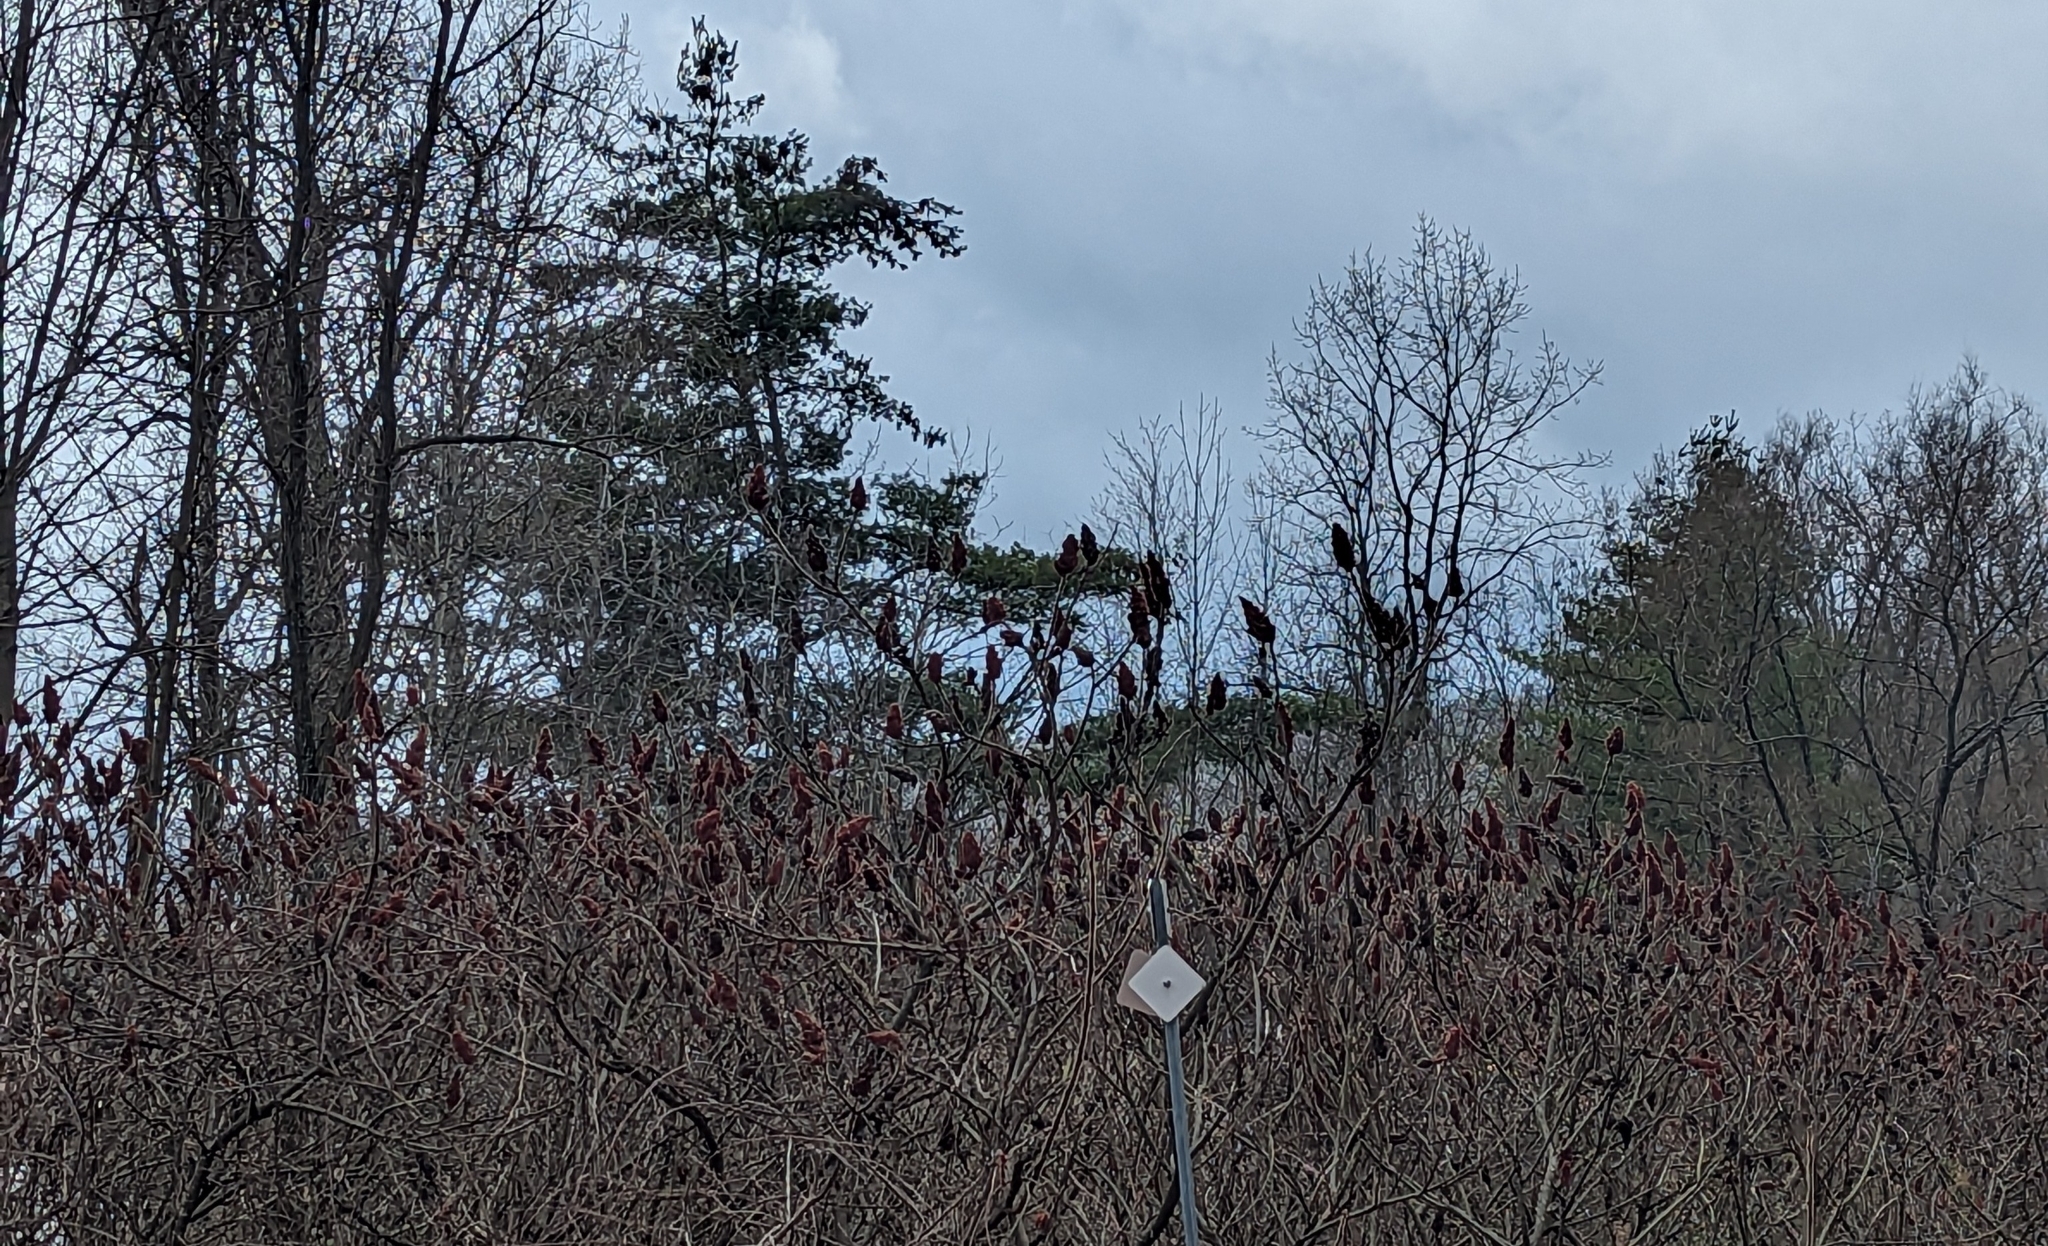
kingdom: Plantae
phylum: Tracheophyta
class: Magnoliopsida
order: Sapindales
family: Anacardiaceae
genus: Rhus
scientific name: Rhus typhina
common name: Staghorn sumac
